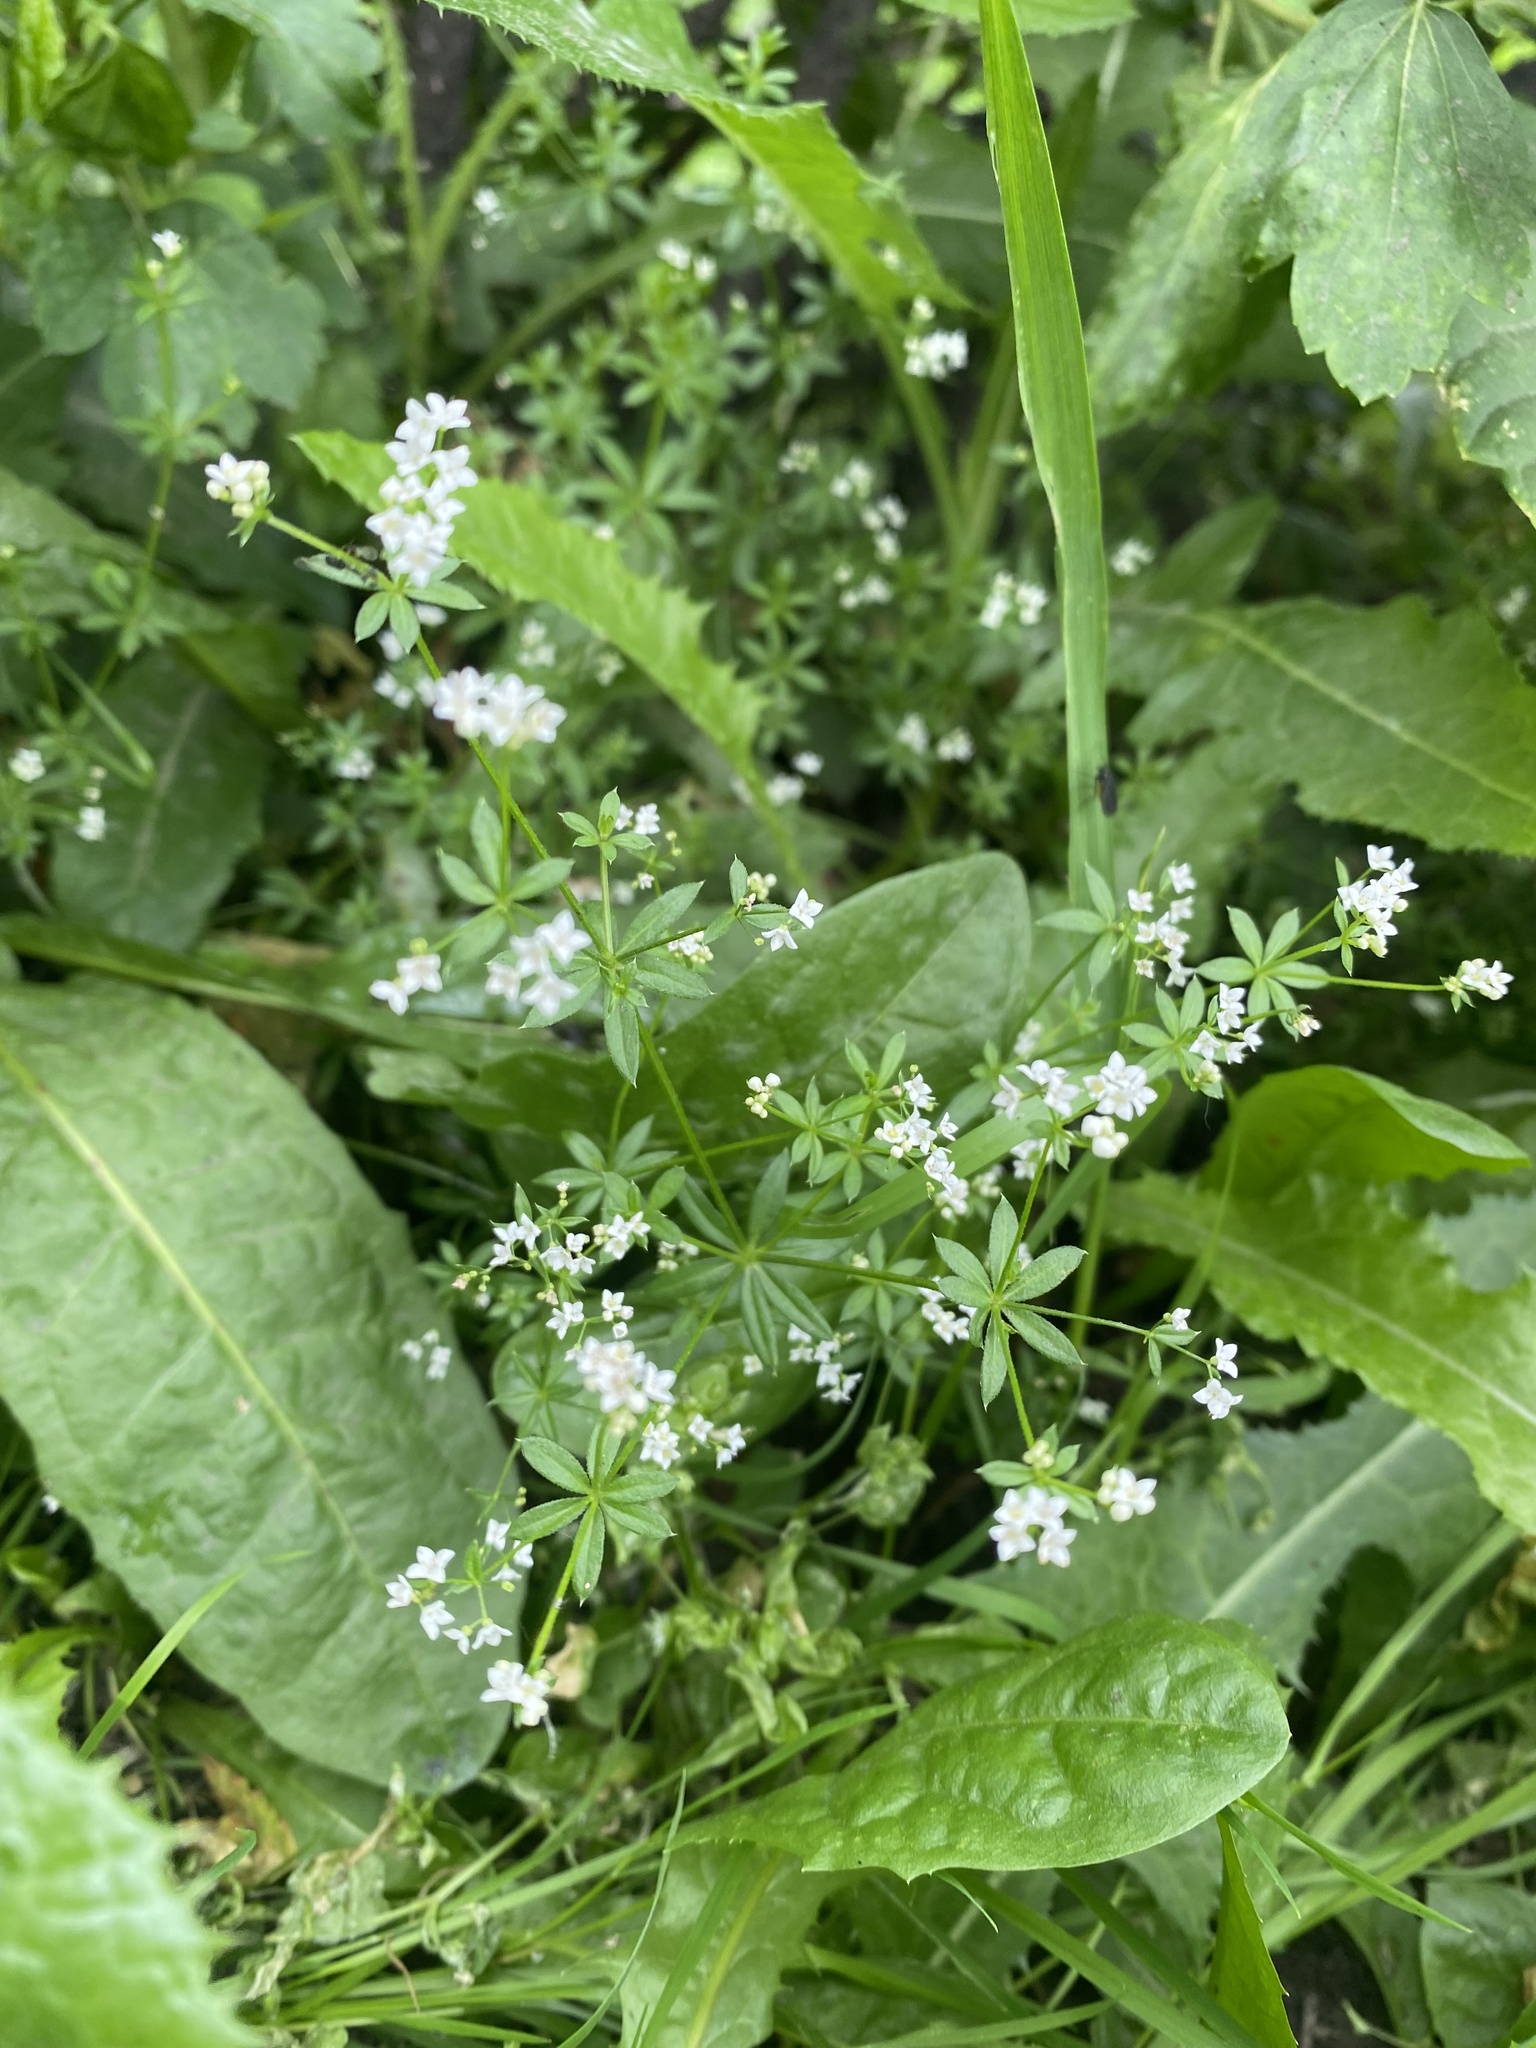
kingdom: Plantae
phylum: Tracheophyta
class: Magnoliopsida
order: Gentianales
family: Rubiaceae
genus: Galium
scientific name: Galium uliginosum
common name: Fen bedstraw
